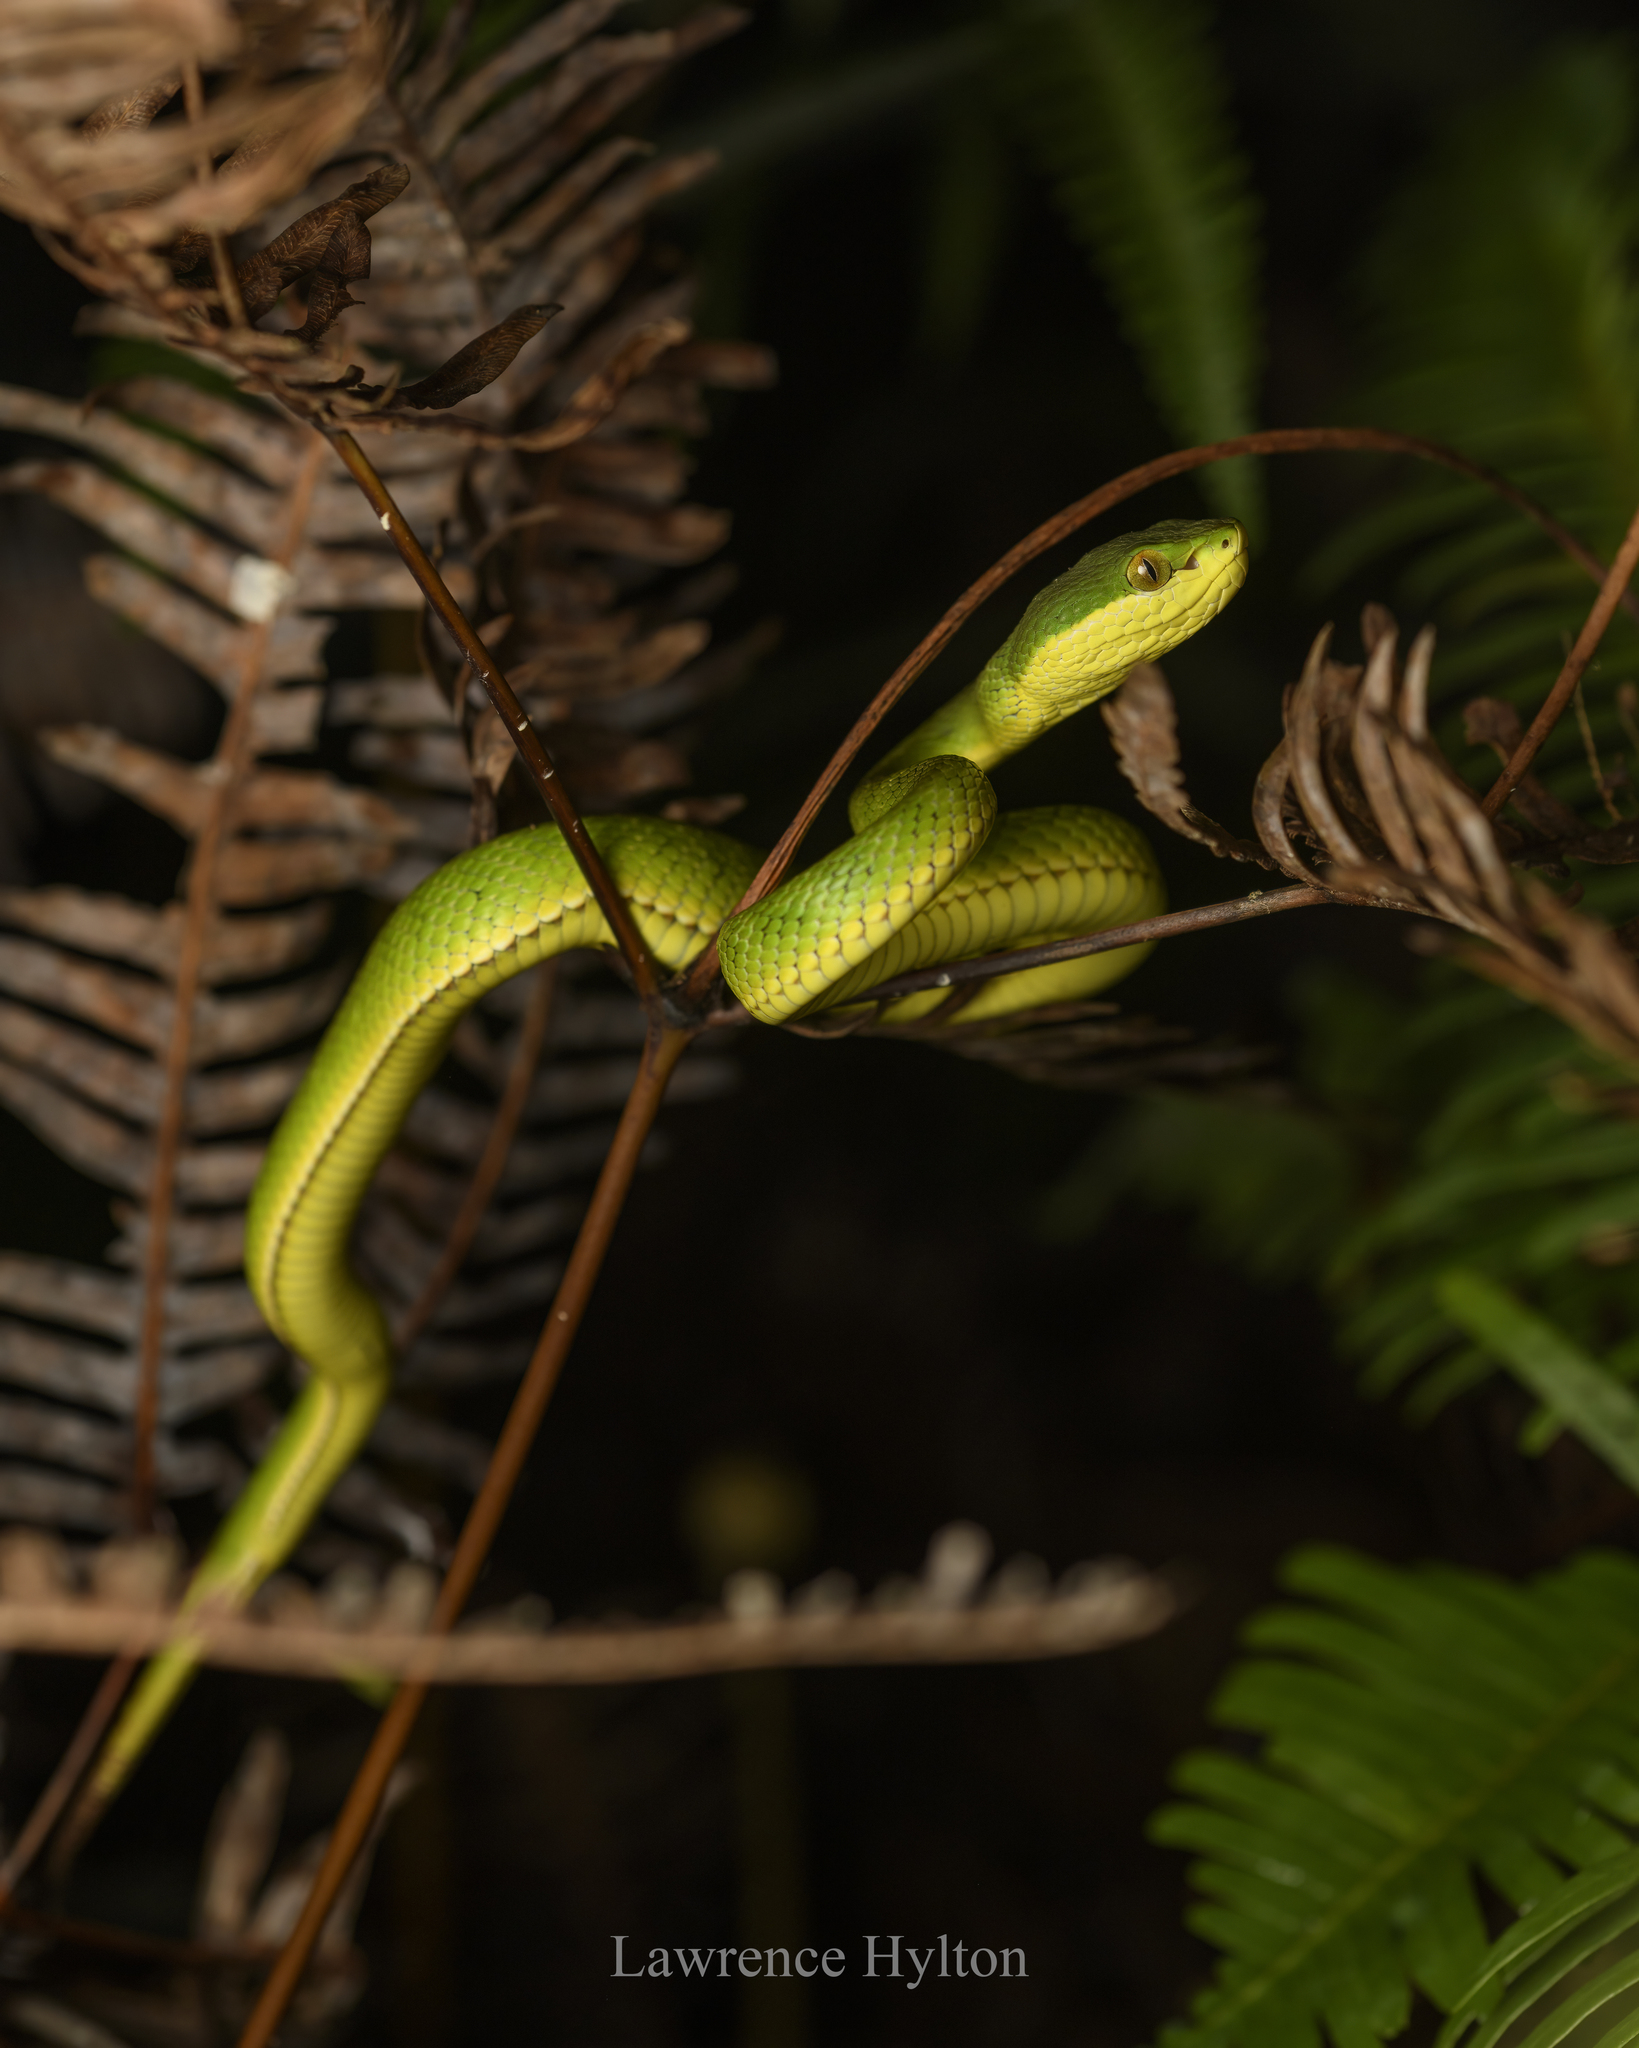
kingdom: Animalia
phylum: Chordata
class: Squamata
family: Viperidae
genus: Trimeresurus
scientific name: Trimeresurus albolabris
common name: White-lipped pitviper
